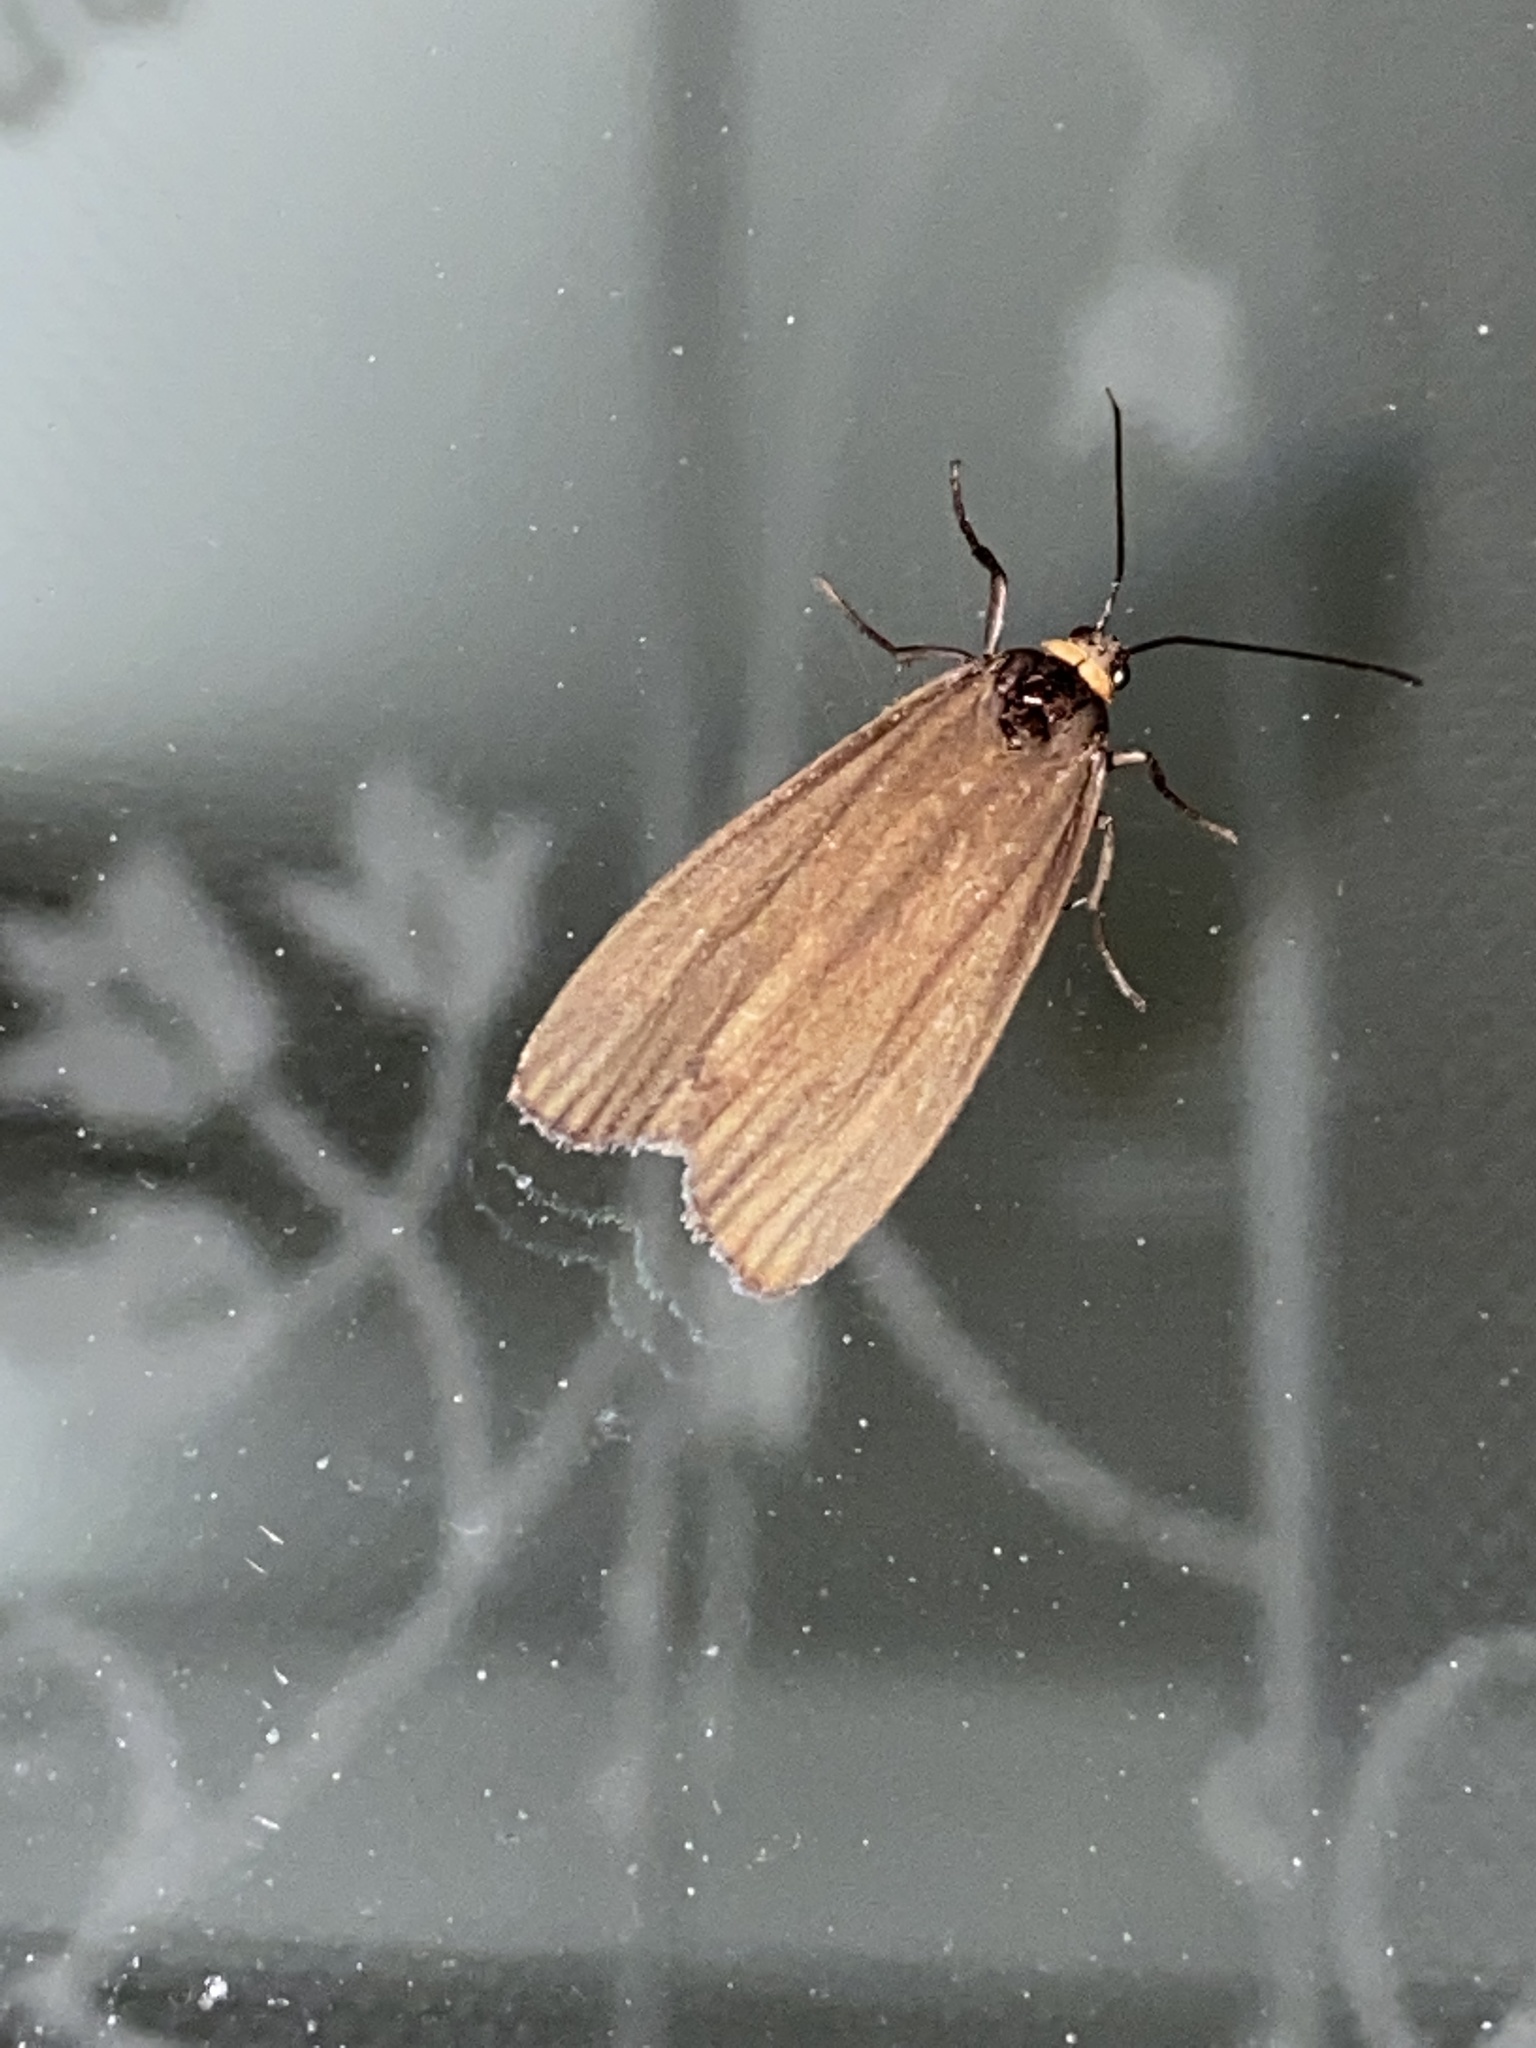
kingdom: Animalia
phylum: Arthropoda
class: Insecta
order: Lepidoptera
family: Erebidae
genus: Atolmis
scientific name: Atolmis rubricollis
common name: Red-necked footman
